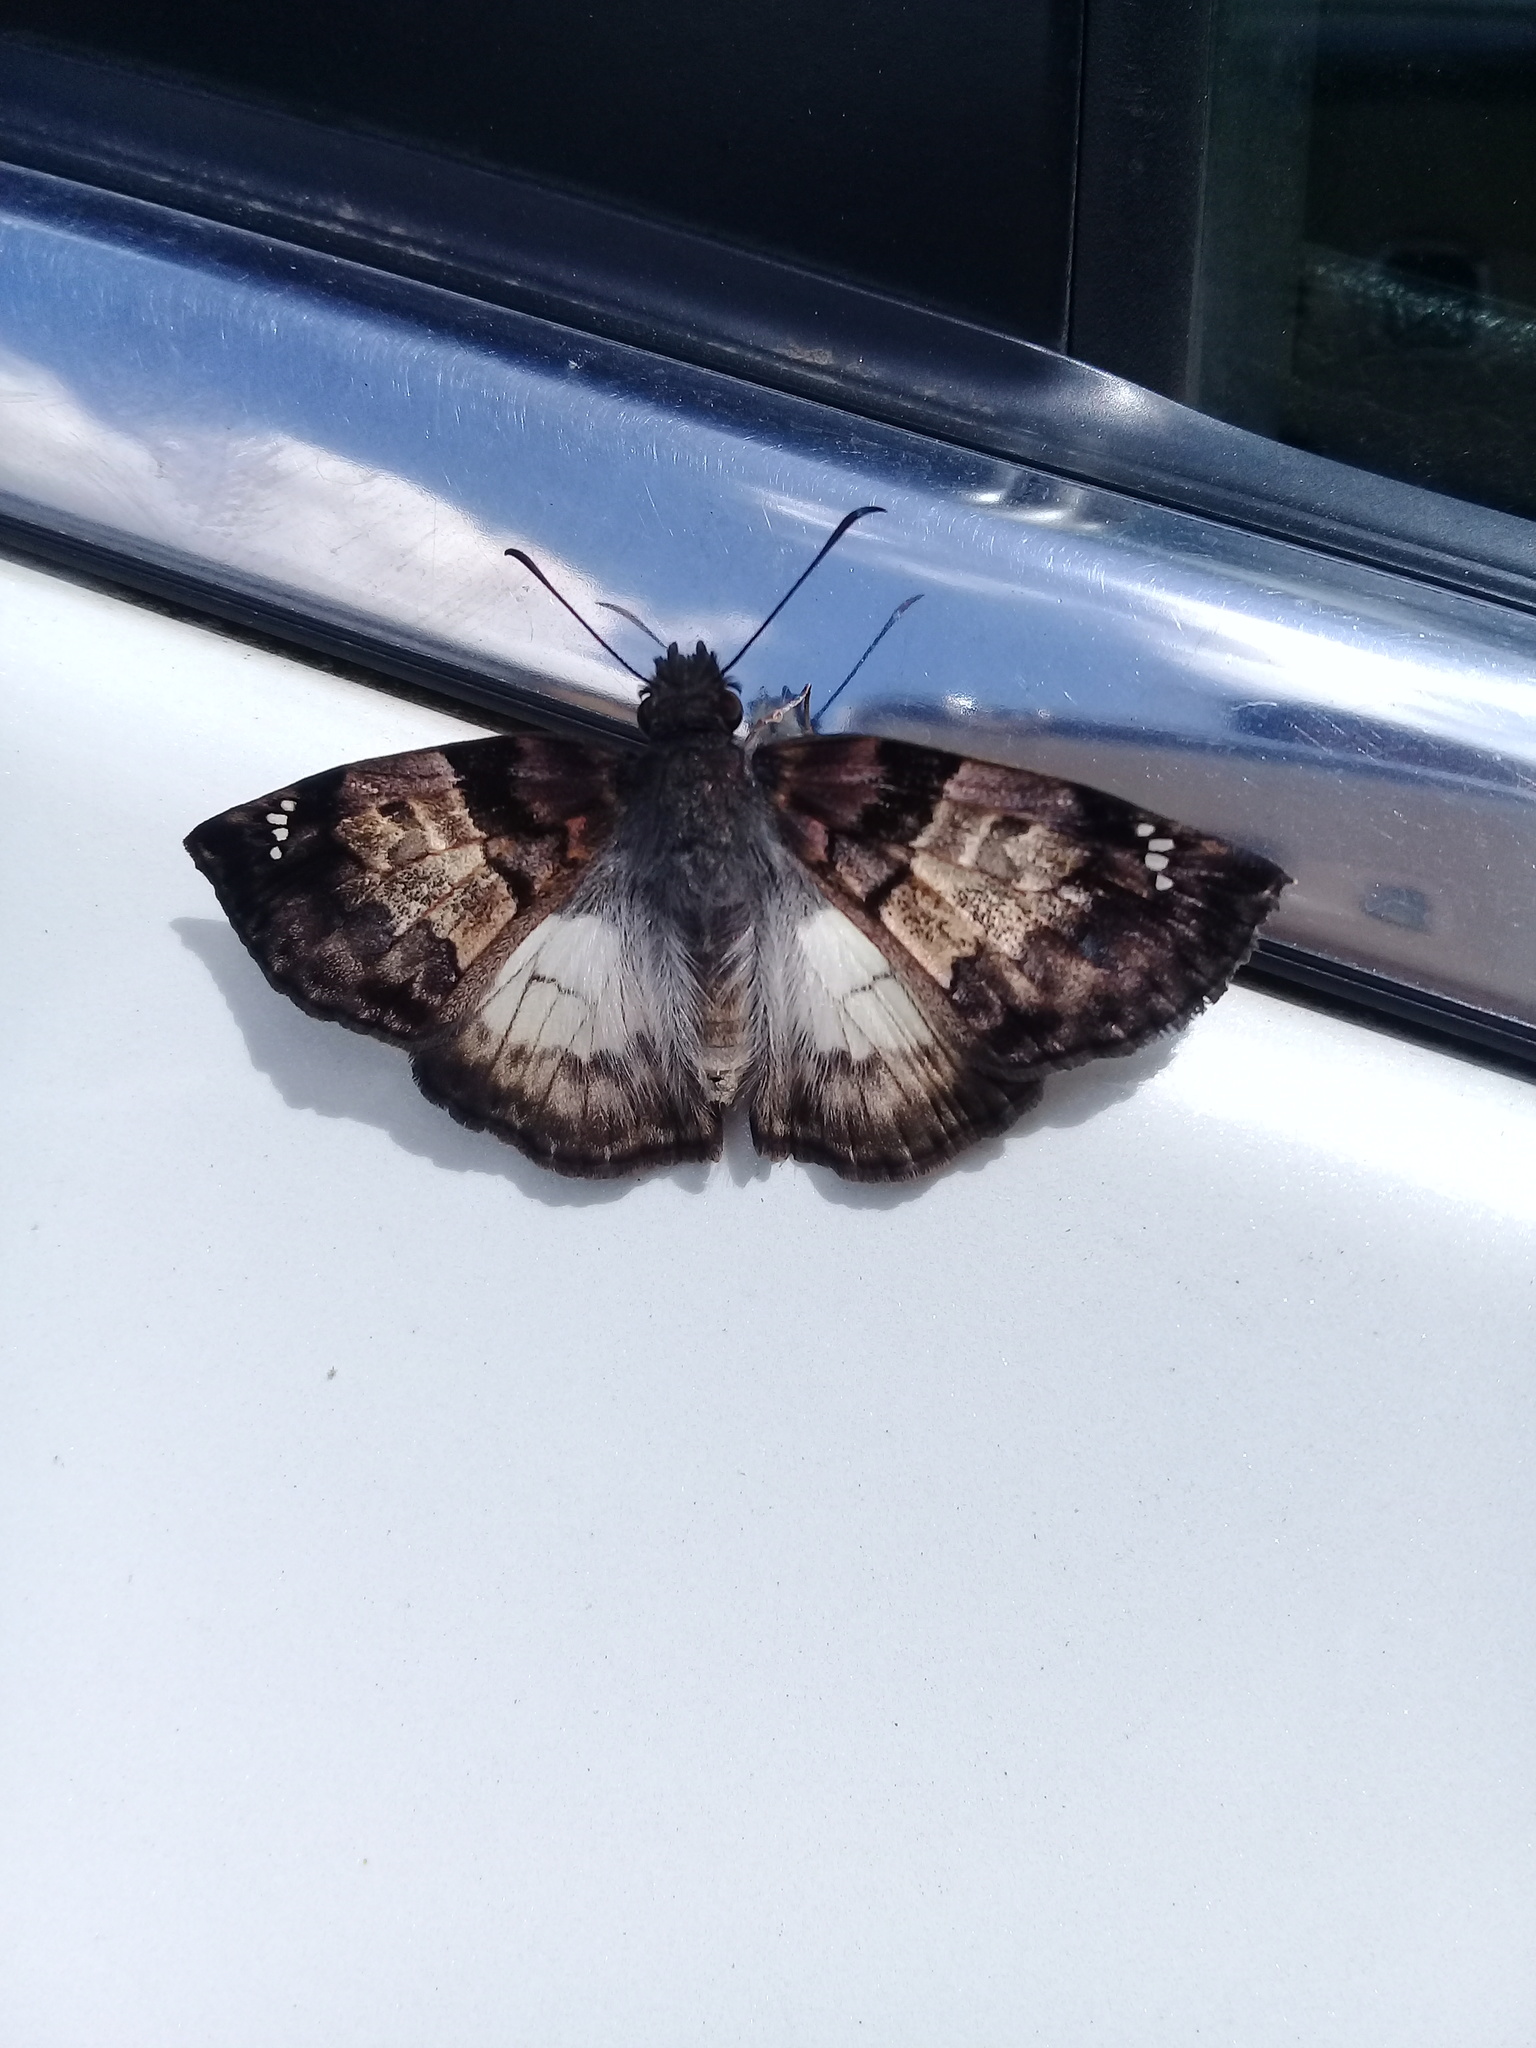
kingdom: Animalia
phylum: Arthropoda
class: Insecta
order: Lepidoptera
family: Hesperiidae
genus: Mylon
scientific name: Mylon lassia
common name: Bold mylon
